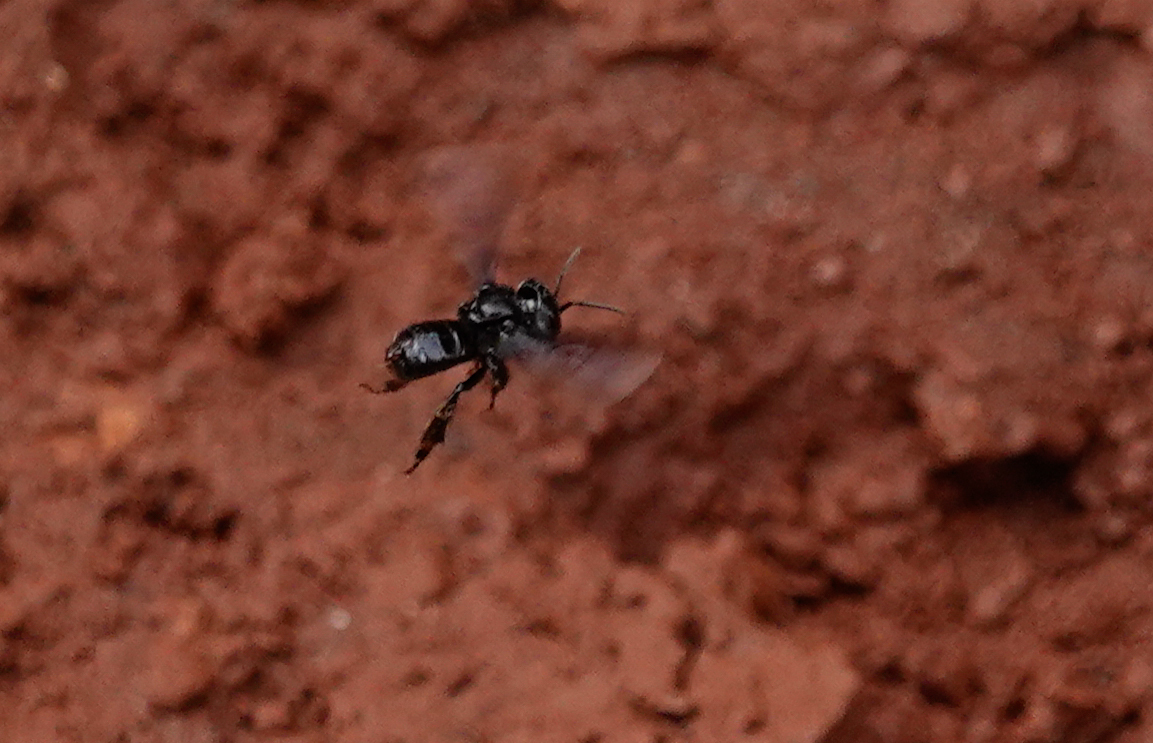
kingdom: Animalia
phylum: Arthropoda
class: Insecta
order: Hymenoptera
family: Apidae
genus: Trigona
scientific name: Trigona spinipes
